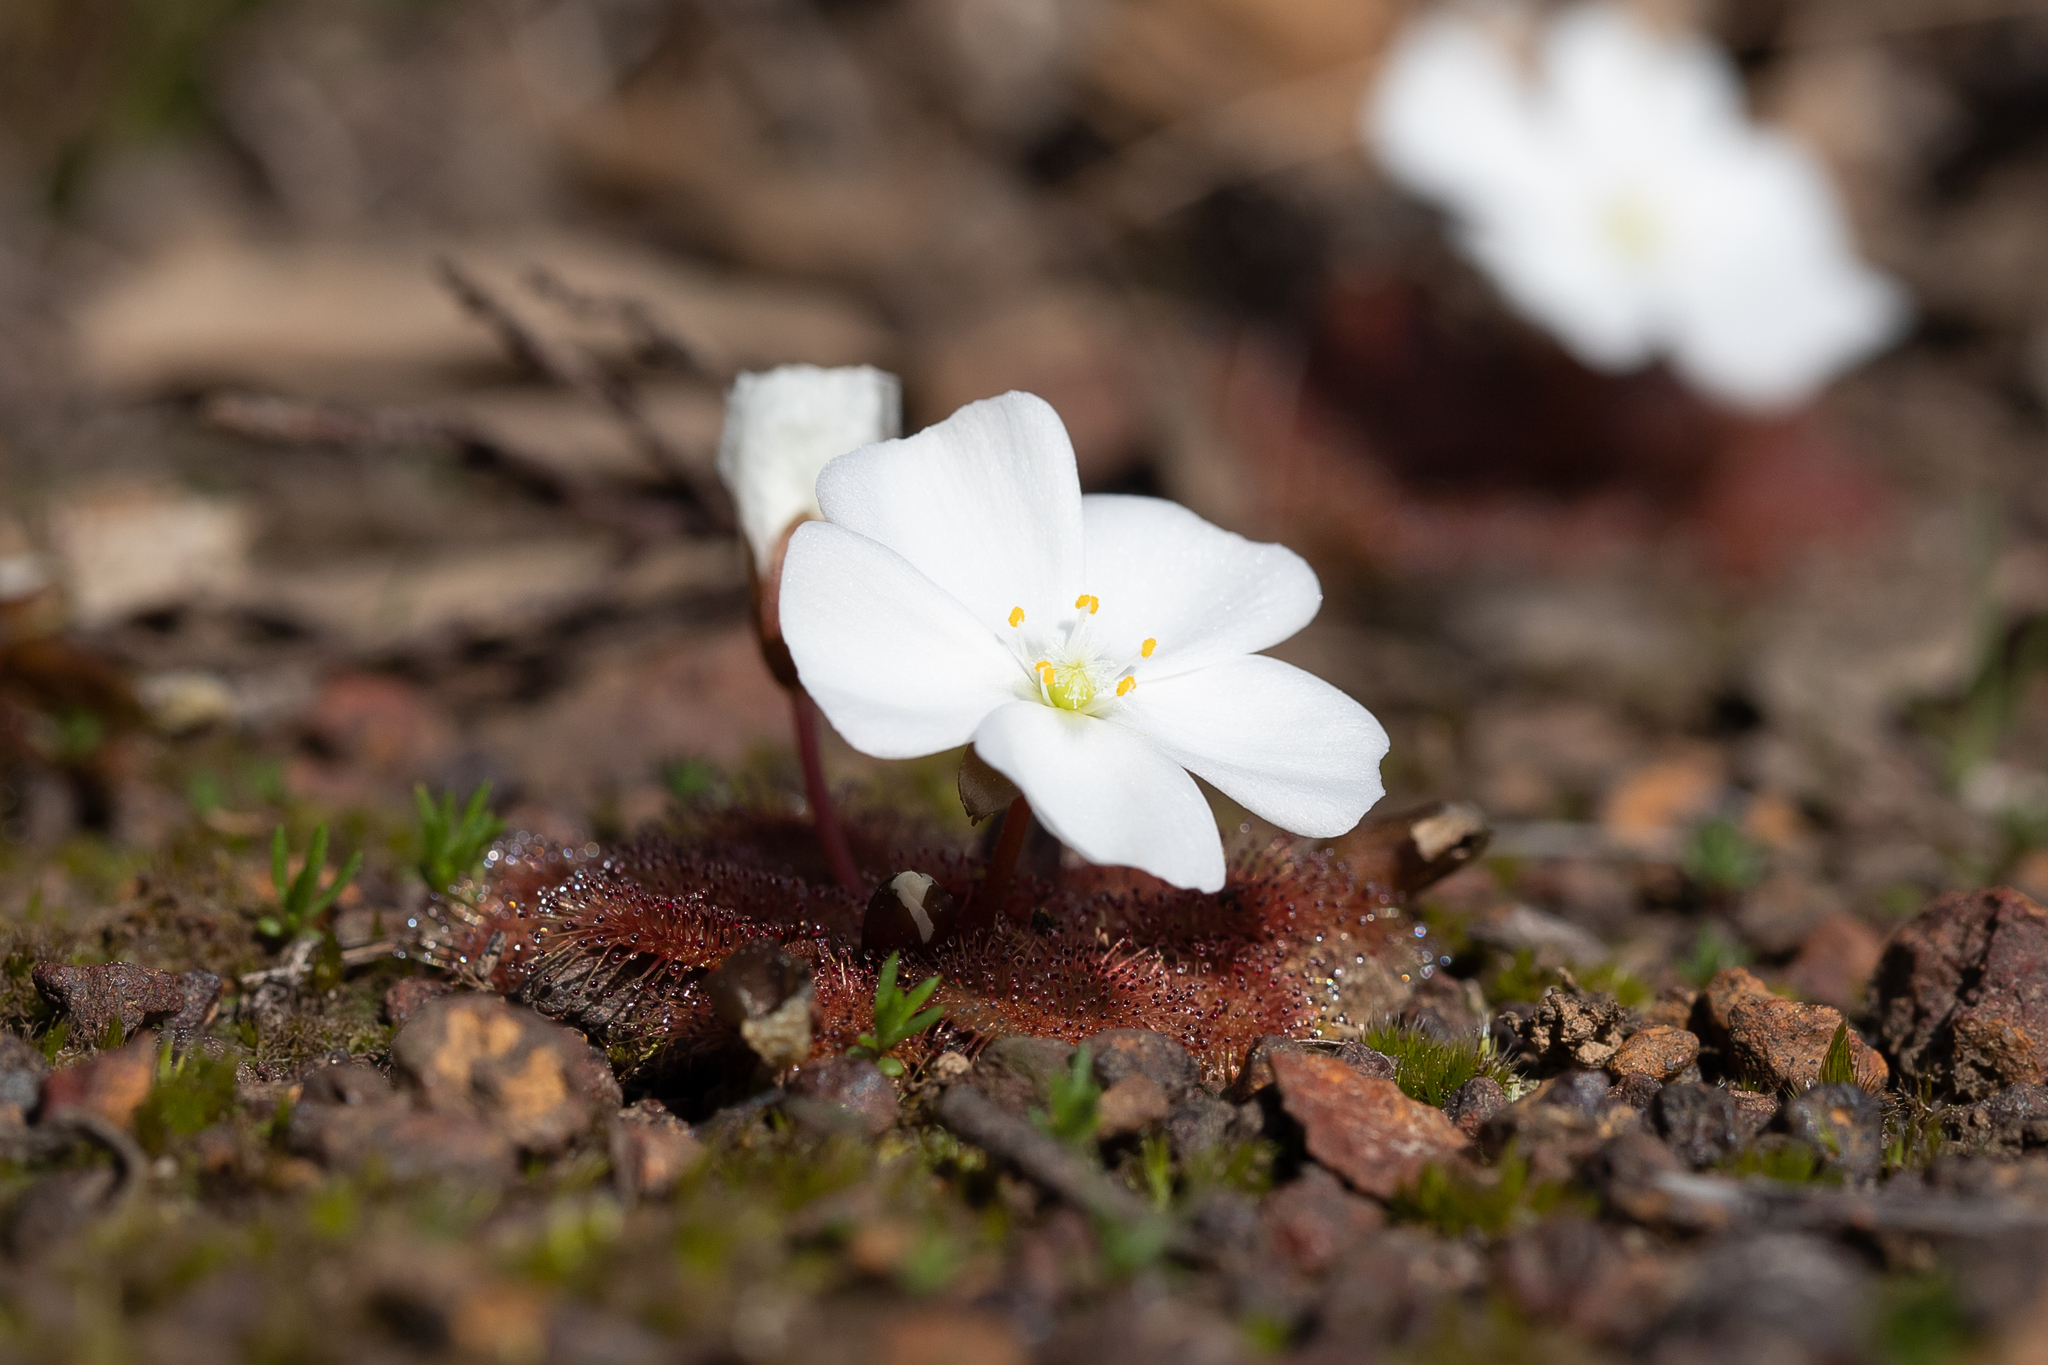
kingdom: Plantae
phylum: Tracheophyta
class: Magnoliopsida
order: Caryophyllales
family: Droseraceae
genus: Drosera
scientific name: Drosera whittakeri
